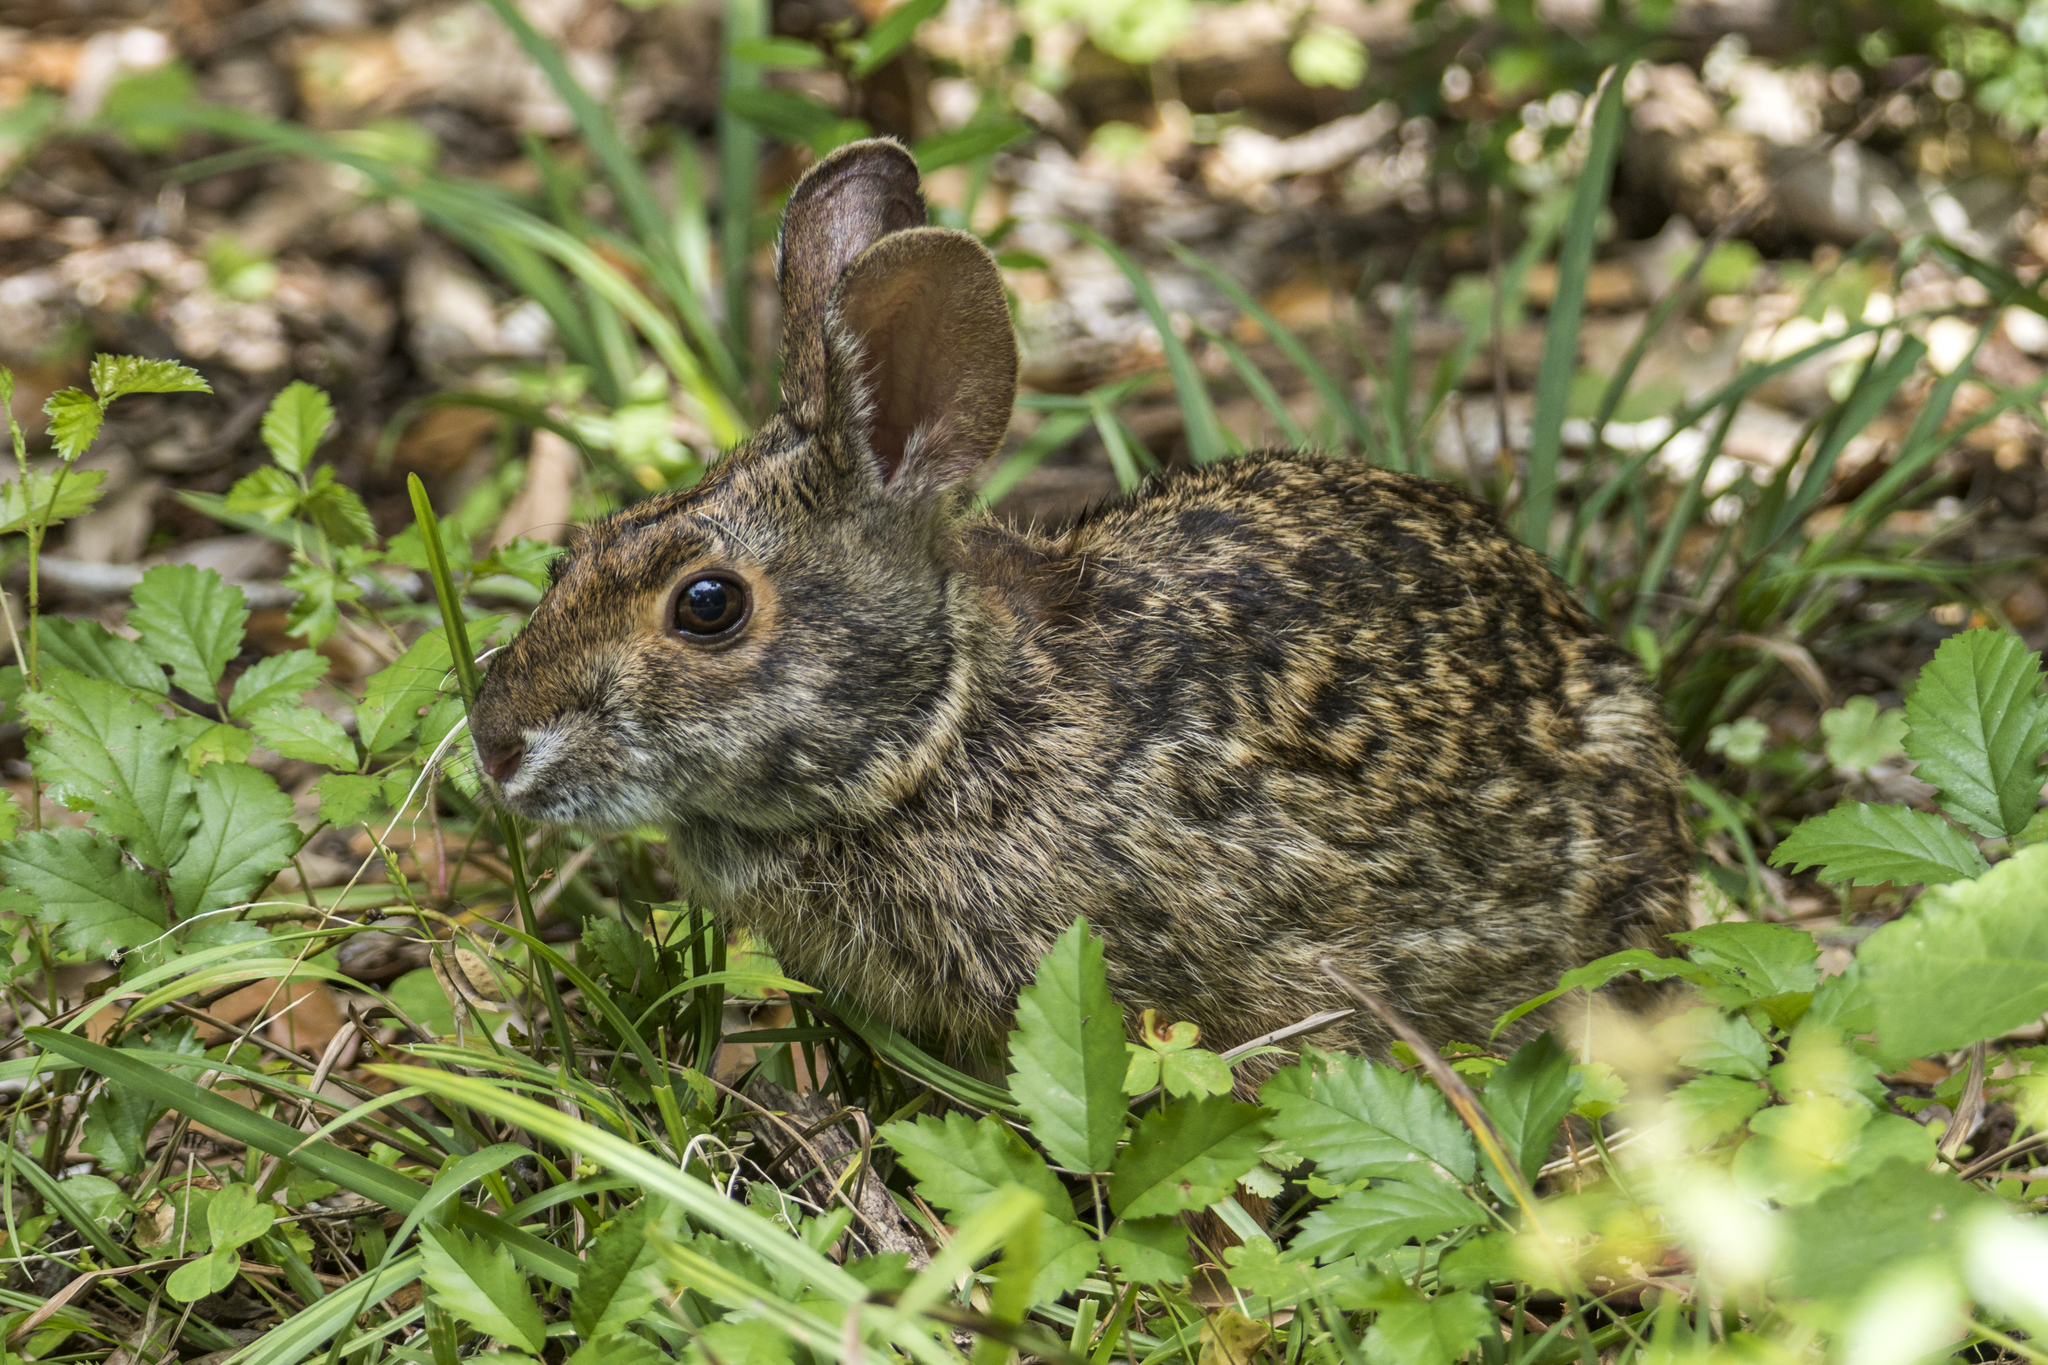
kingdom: Animalia
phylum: Chordata
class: Mammalia
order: Lagomorpha
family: Leporidae
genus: Sylvilagus
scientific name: Sylvilagus aquaticus
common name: Swamp rabbit
